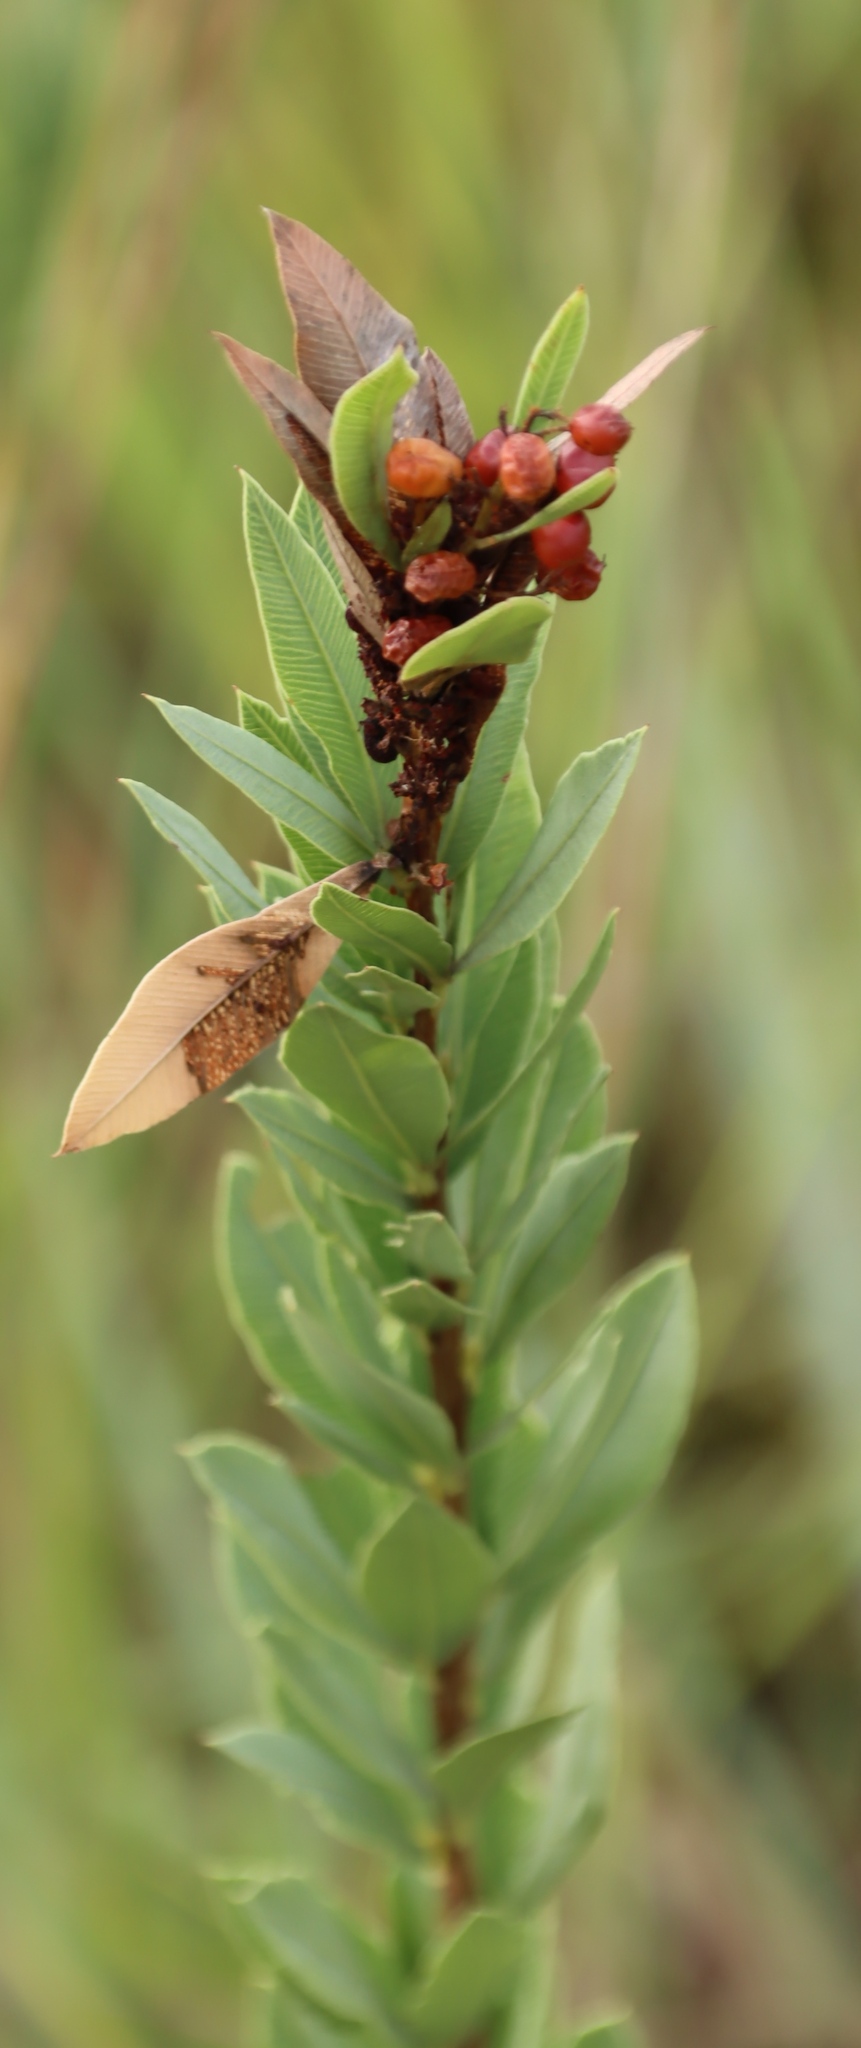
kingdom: Plantae
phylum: Tracheophyta
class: Magnoliopsida
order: Sapindales
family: Anacardiaceae
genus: Searsia
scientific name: Searsia pondoensis
